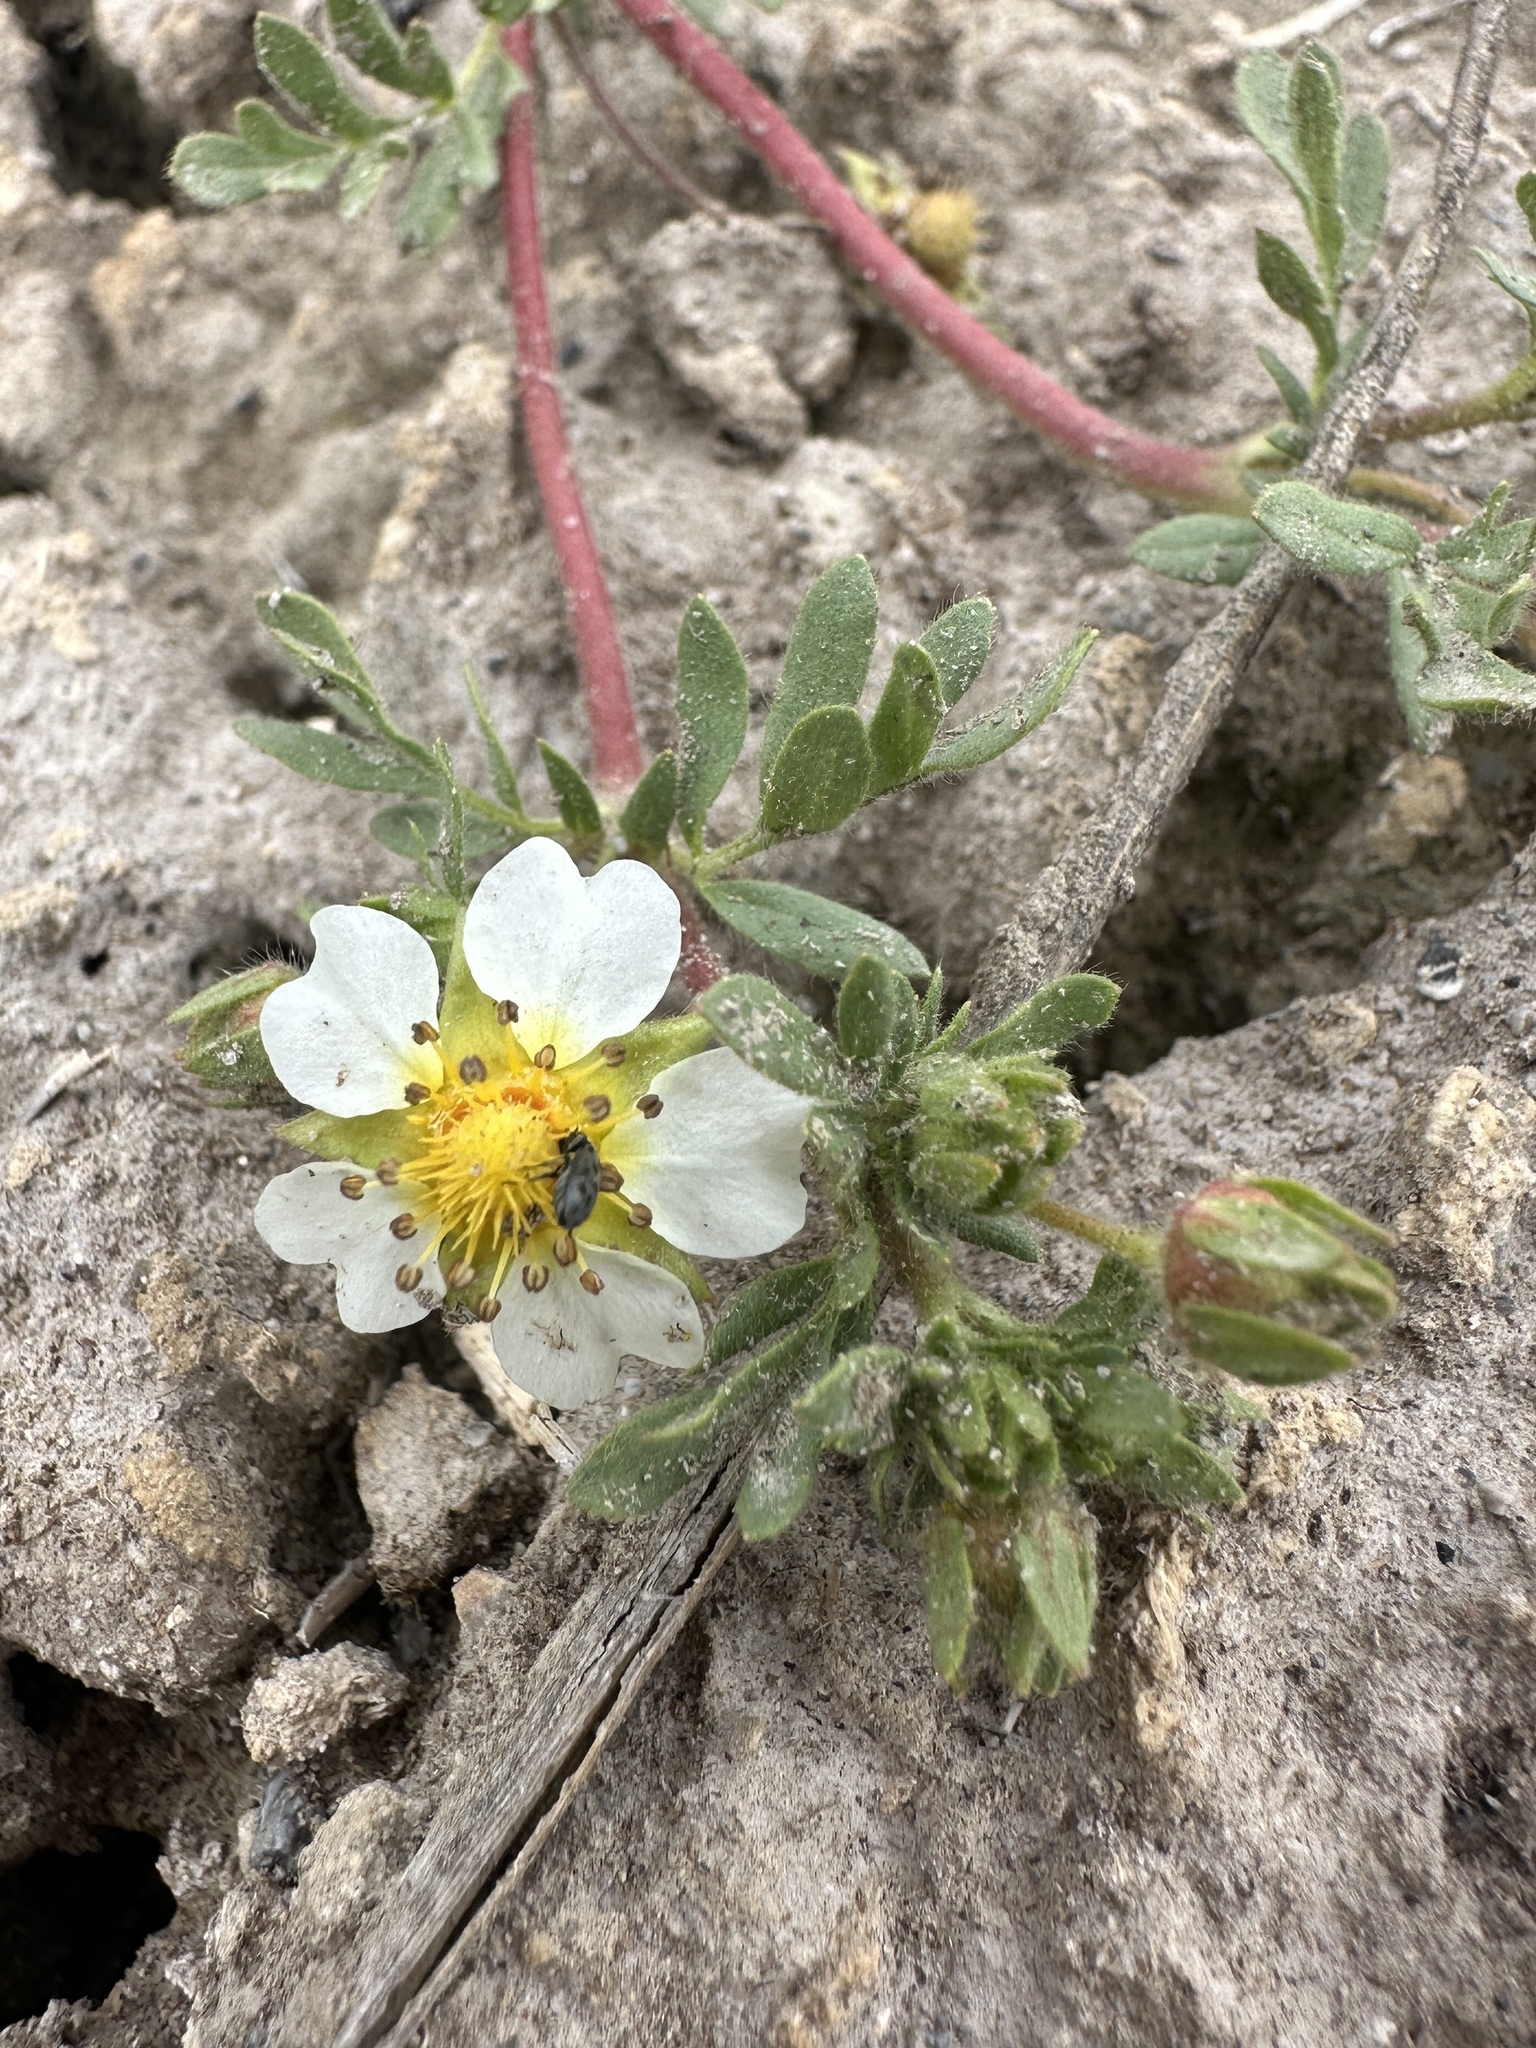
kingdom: Plantae
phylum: Tracheophyta
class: Magnoliopsida
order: Rosales
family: Rosaceae
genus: Potentilla
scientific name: Potentilla newberryi
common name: Newberry's cinquefoil
